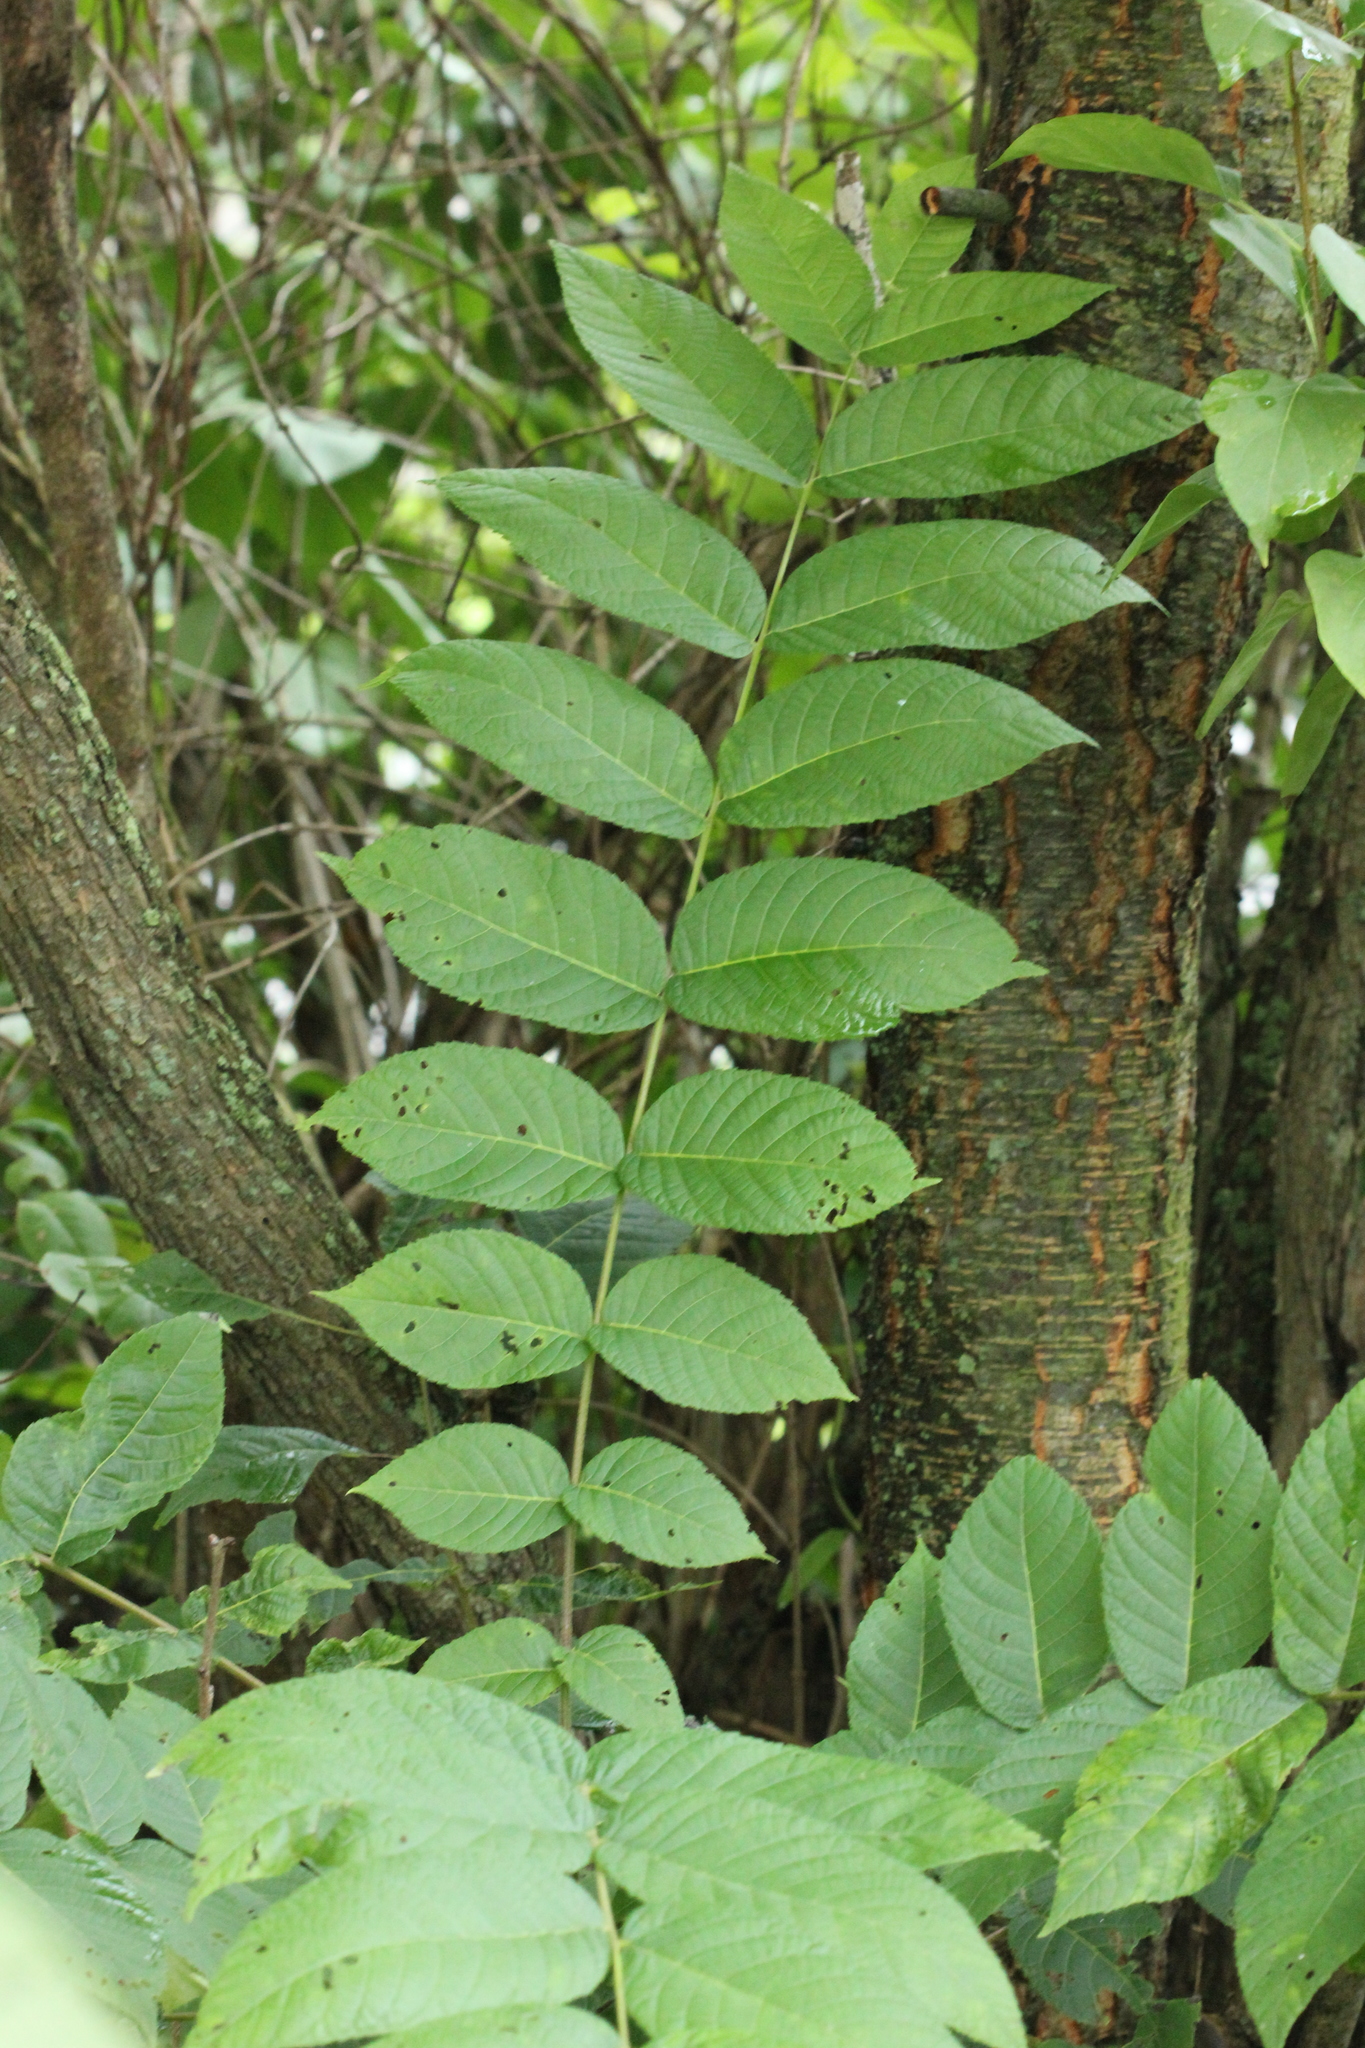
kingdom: Plantae
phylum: Tracheophyta
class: Magnoliopsida
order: Fagales
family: Juglandaceae
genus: Juglans
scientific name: Juglans nigra
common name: Black walnut
